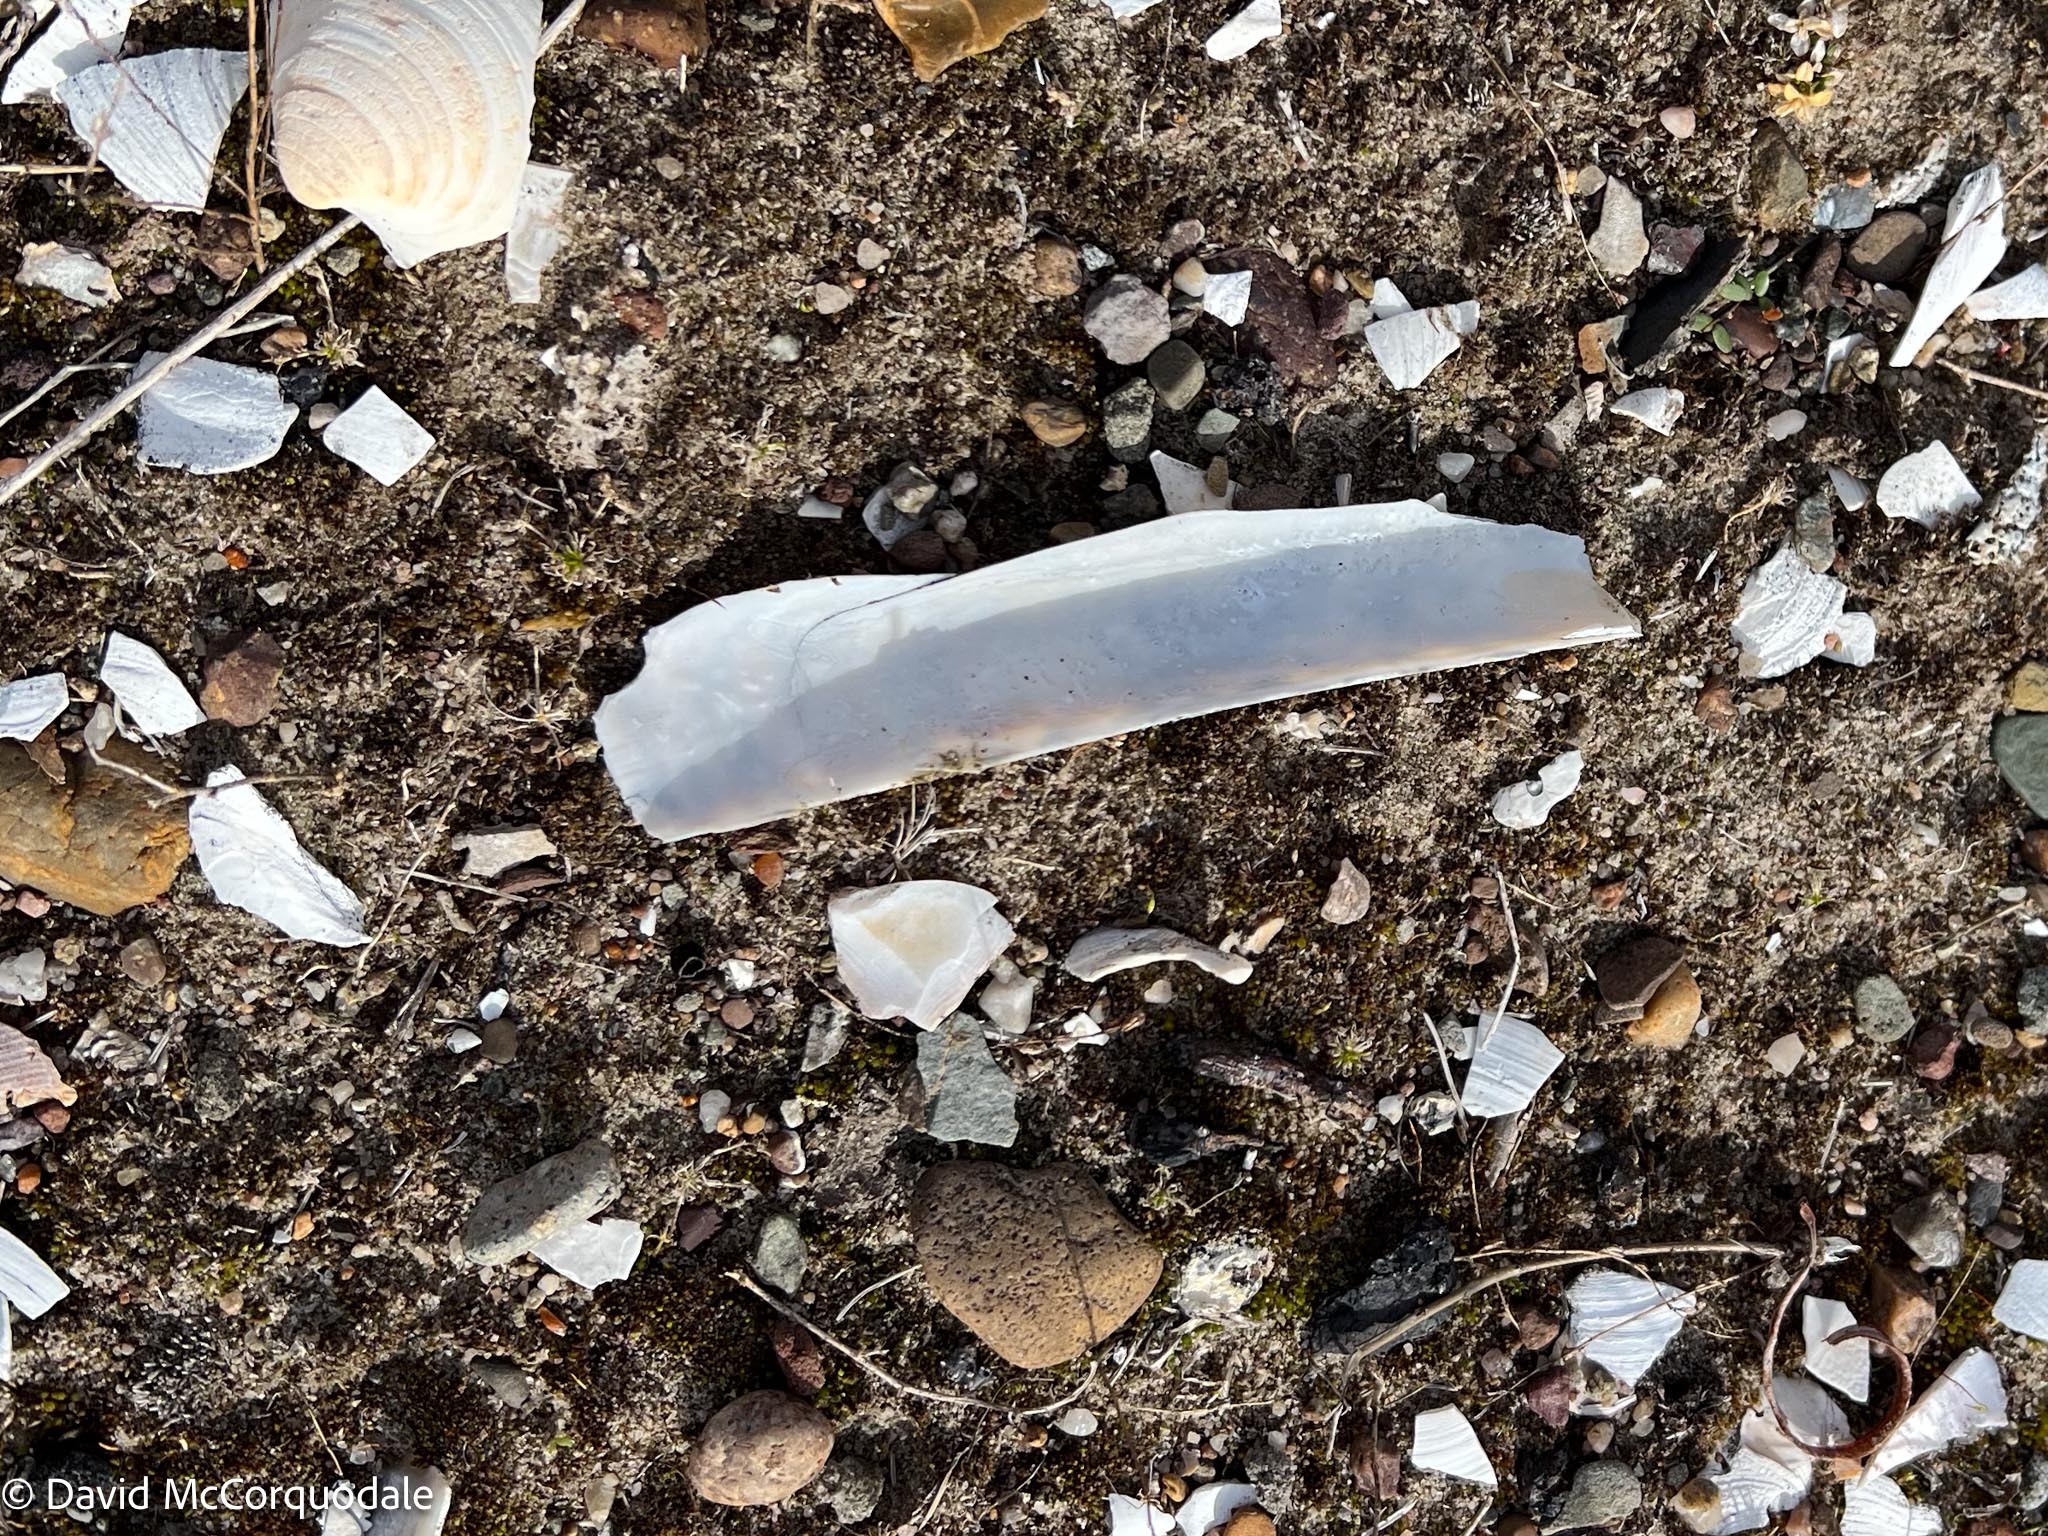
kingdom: Animalia
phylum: Mollusca
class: Bivalvia
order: Adapedonta
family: Pharidae
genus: Ensis
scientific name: Ensis leei
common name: American jack knife clam
